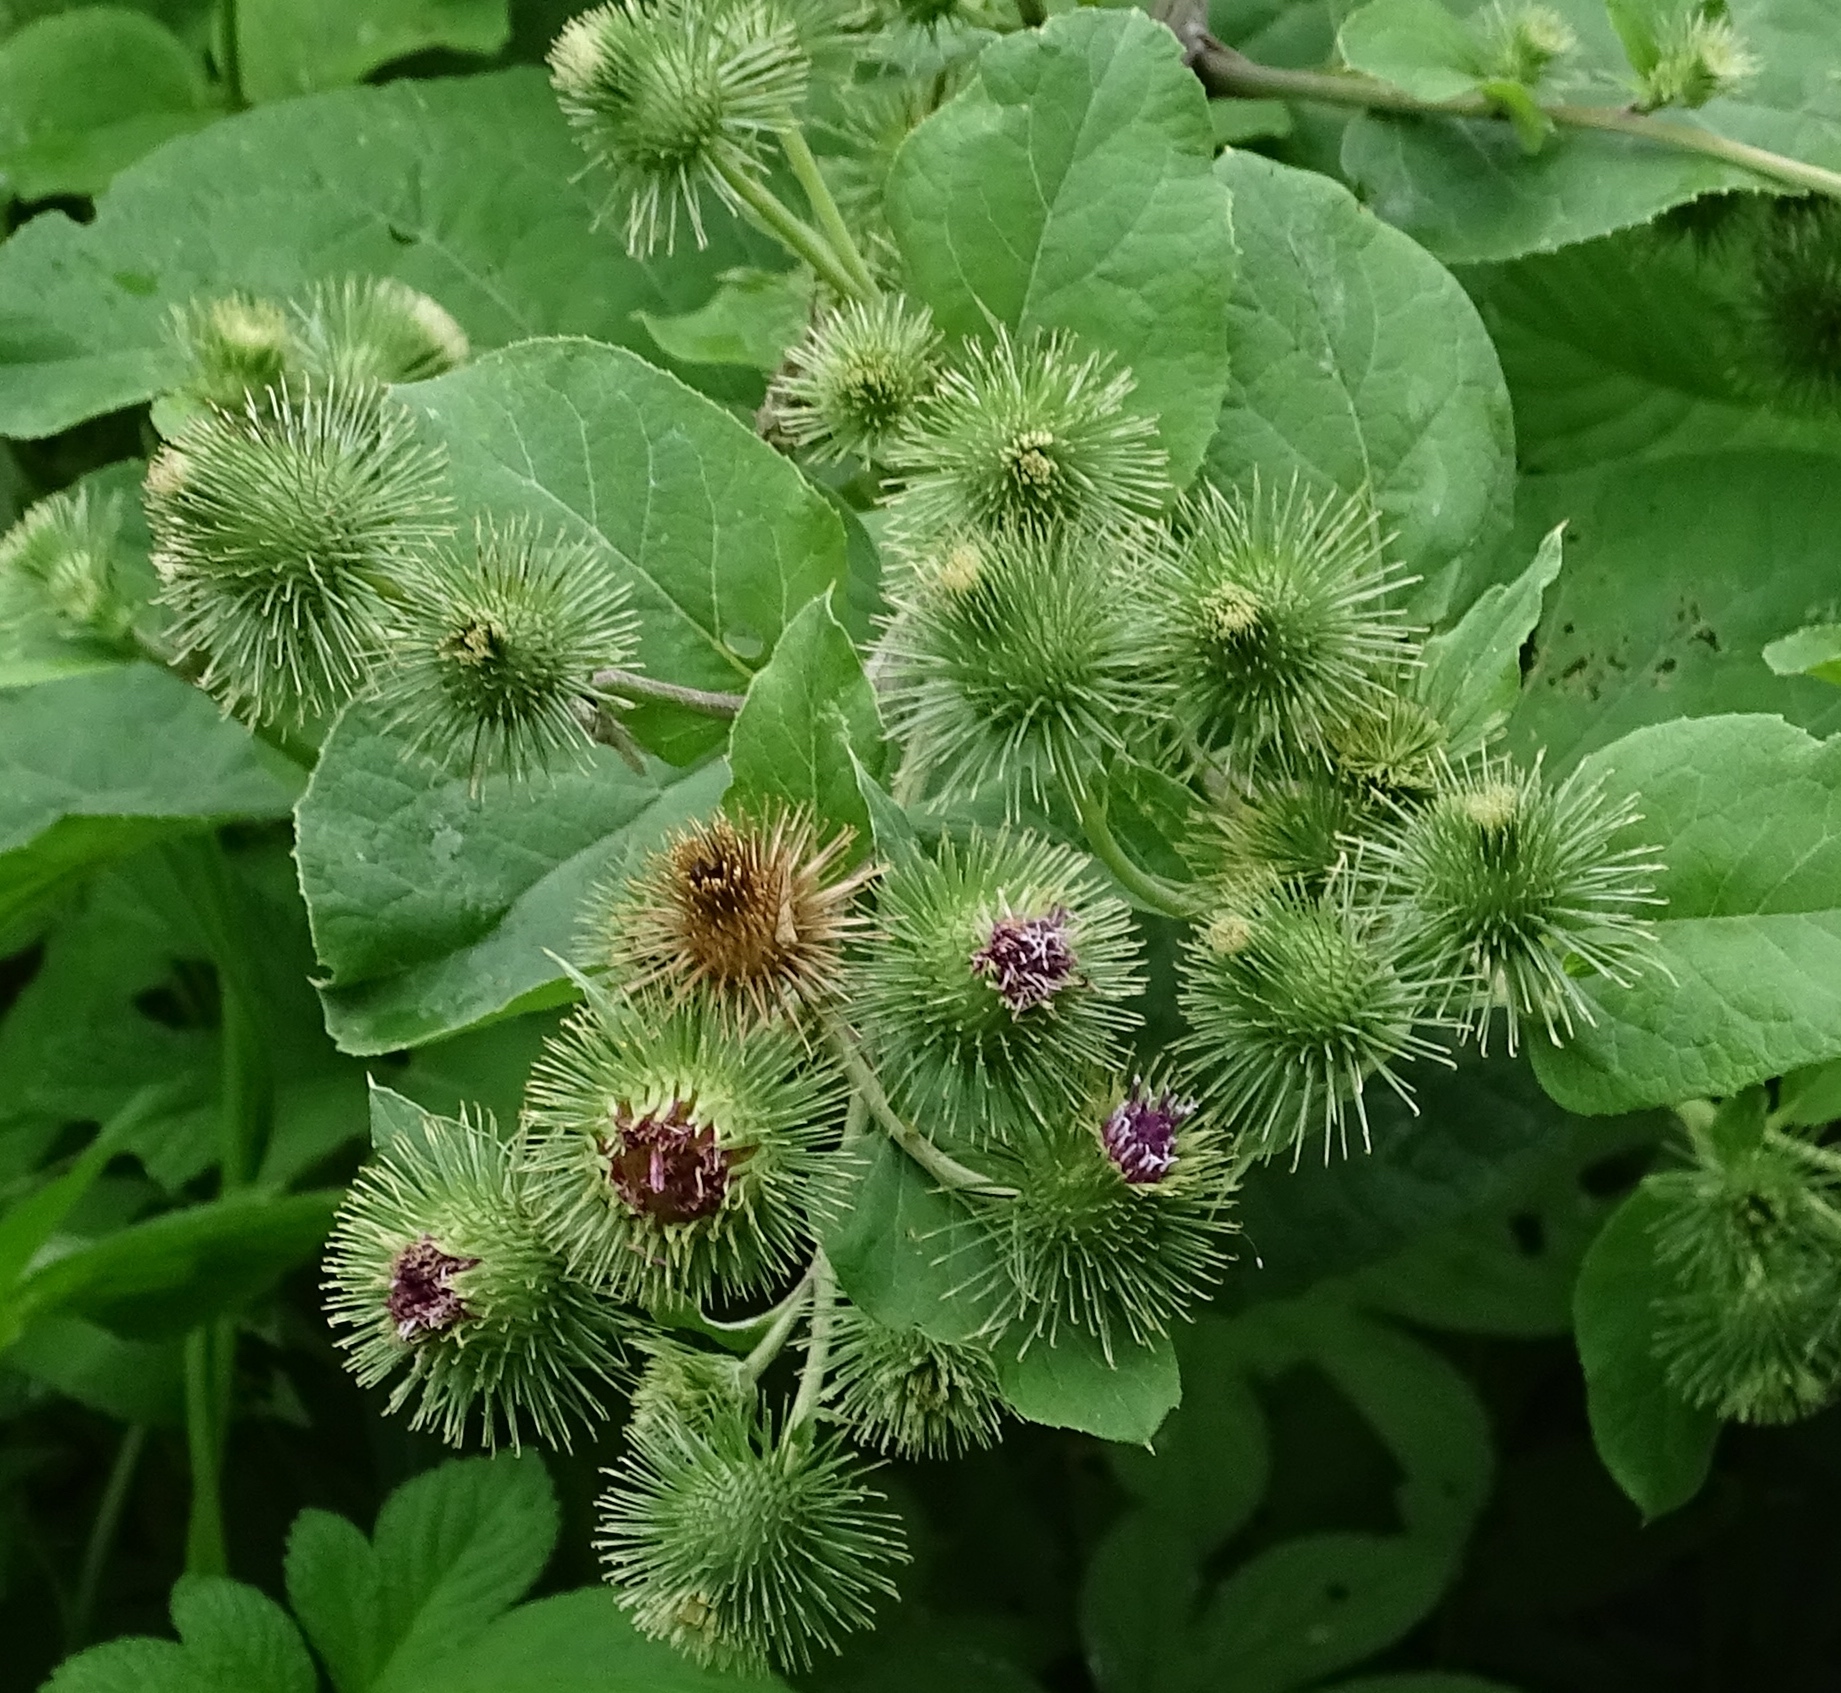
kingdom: Plantae
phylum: Tracheophyta
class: Magnoliopsida
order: Asterales
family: Asteraceae
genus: Arctium
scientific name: Arctium lappa
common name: Greater burdock
